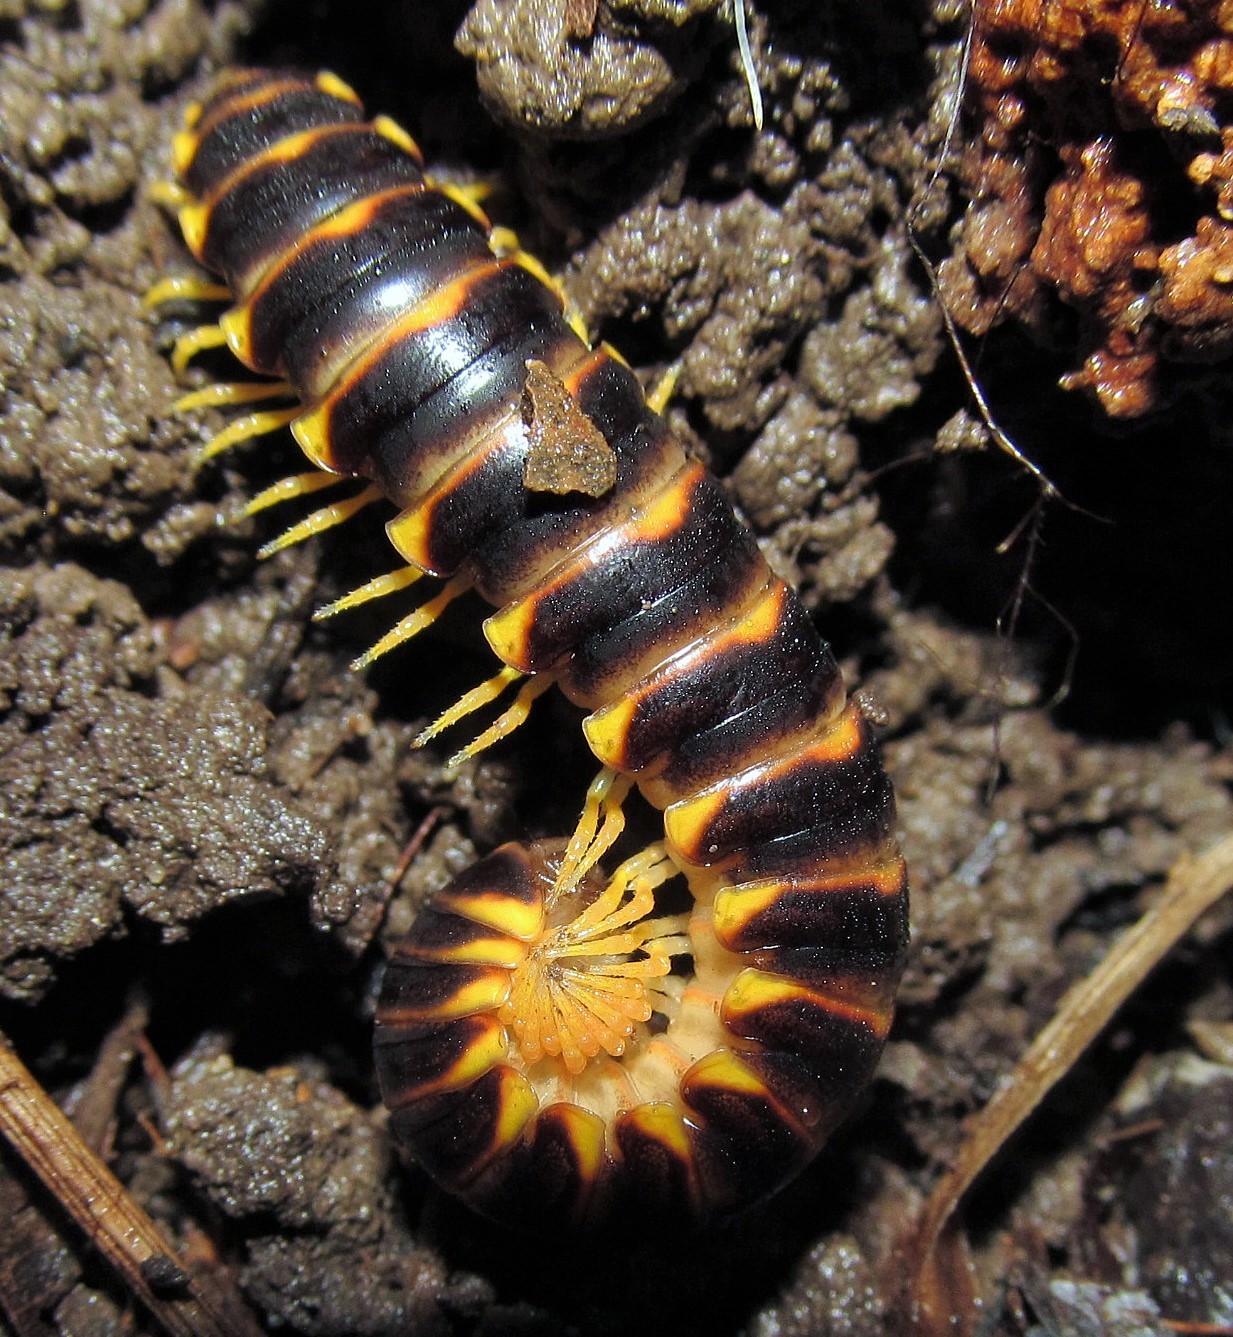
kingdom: Animalia
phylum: Arthropoda
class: Diplopoda
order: Polydesmida
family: Xystodesmidae
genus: Rudiloria
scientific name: Rudiloria mohicana
